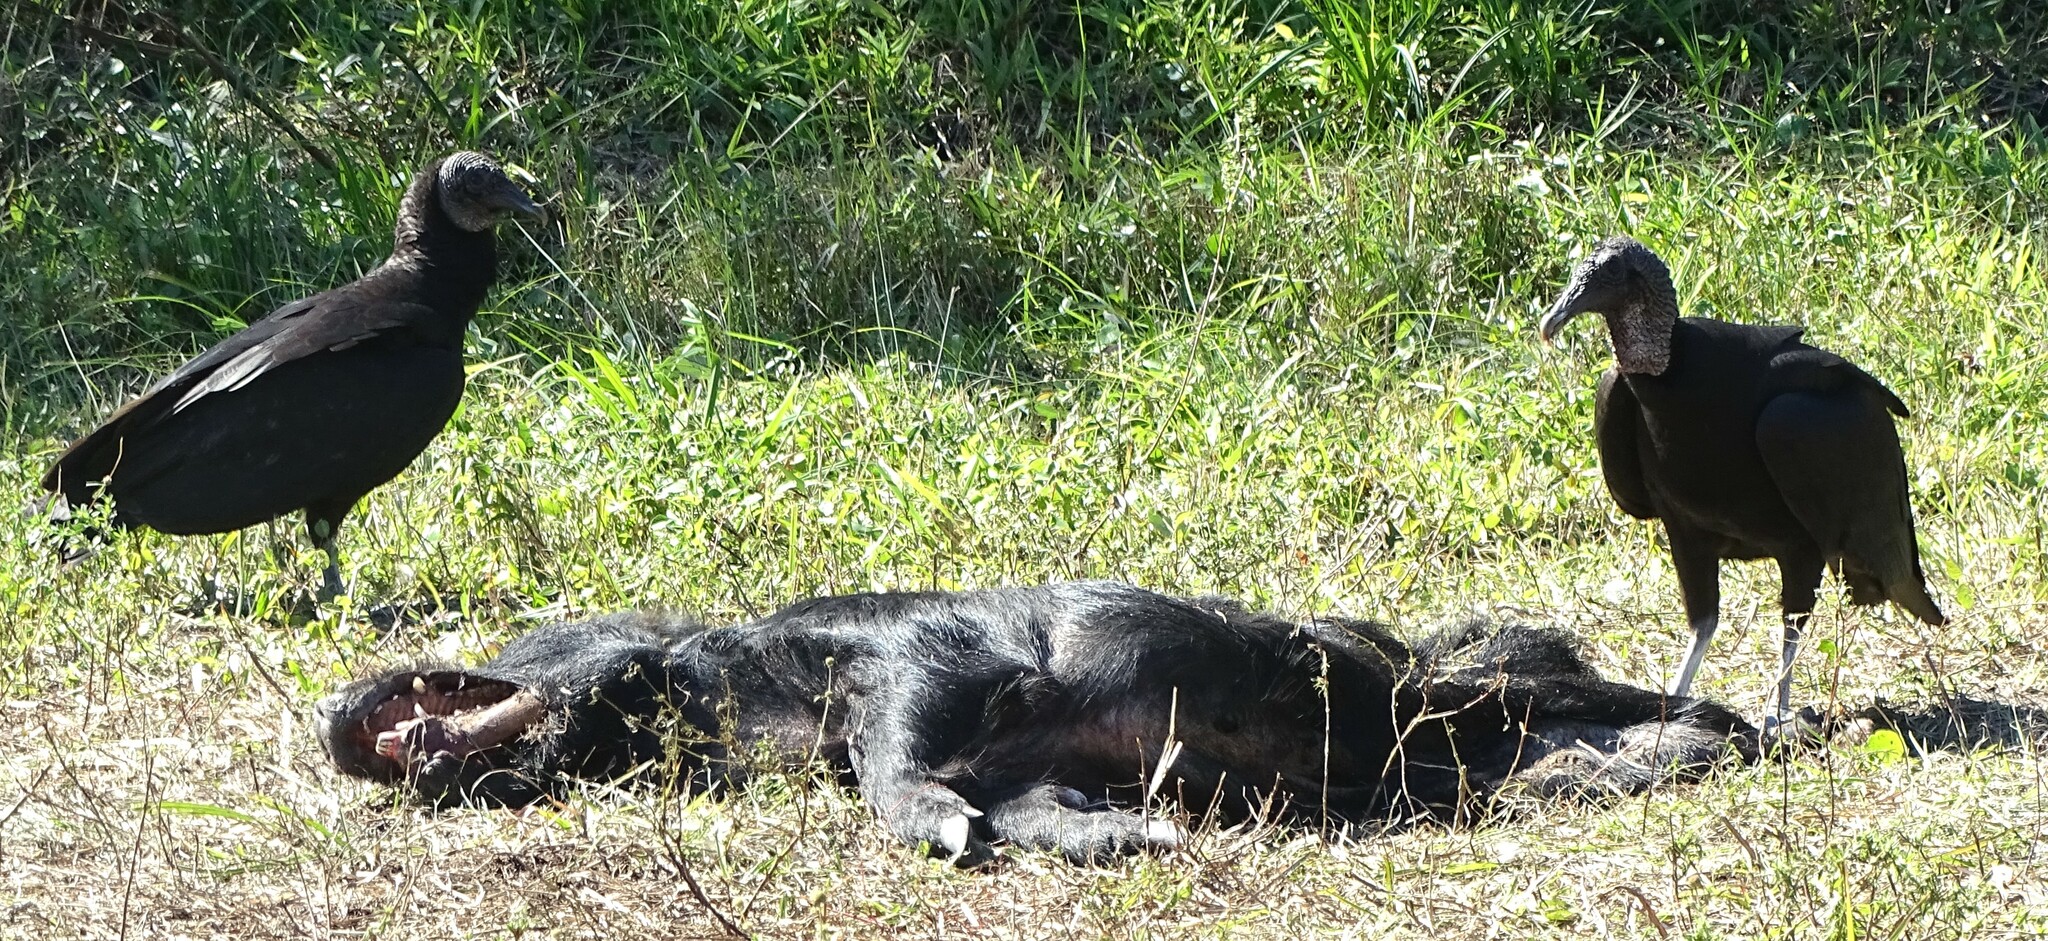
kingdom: Animalia
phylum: Chordata
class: Aves
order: Accipitriformes
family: Cathartidae
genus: Coragyps
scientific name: Coragyps atratus
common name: Black vulture
